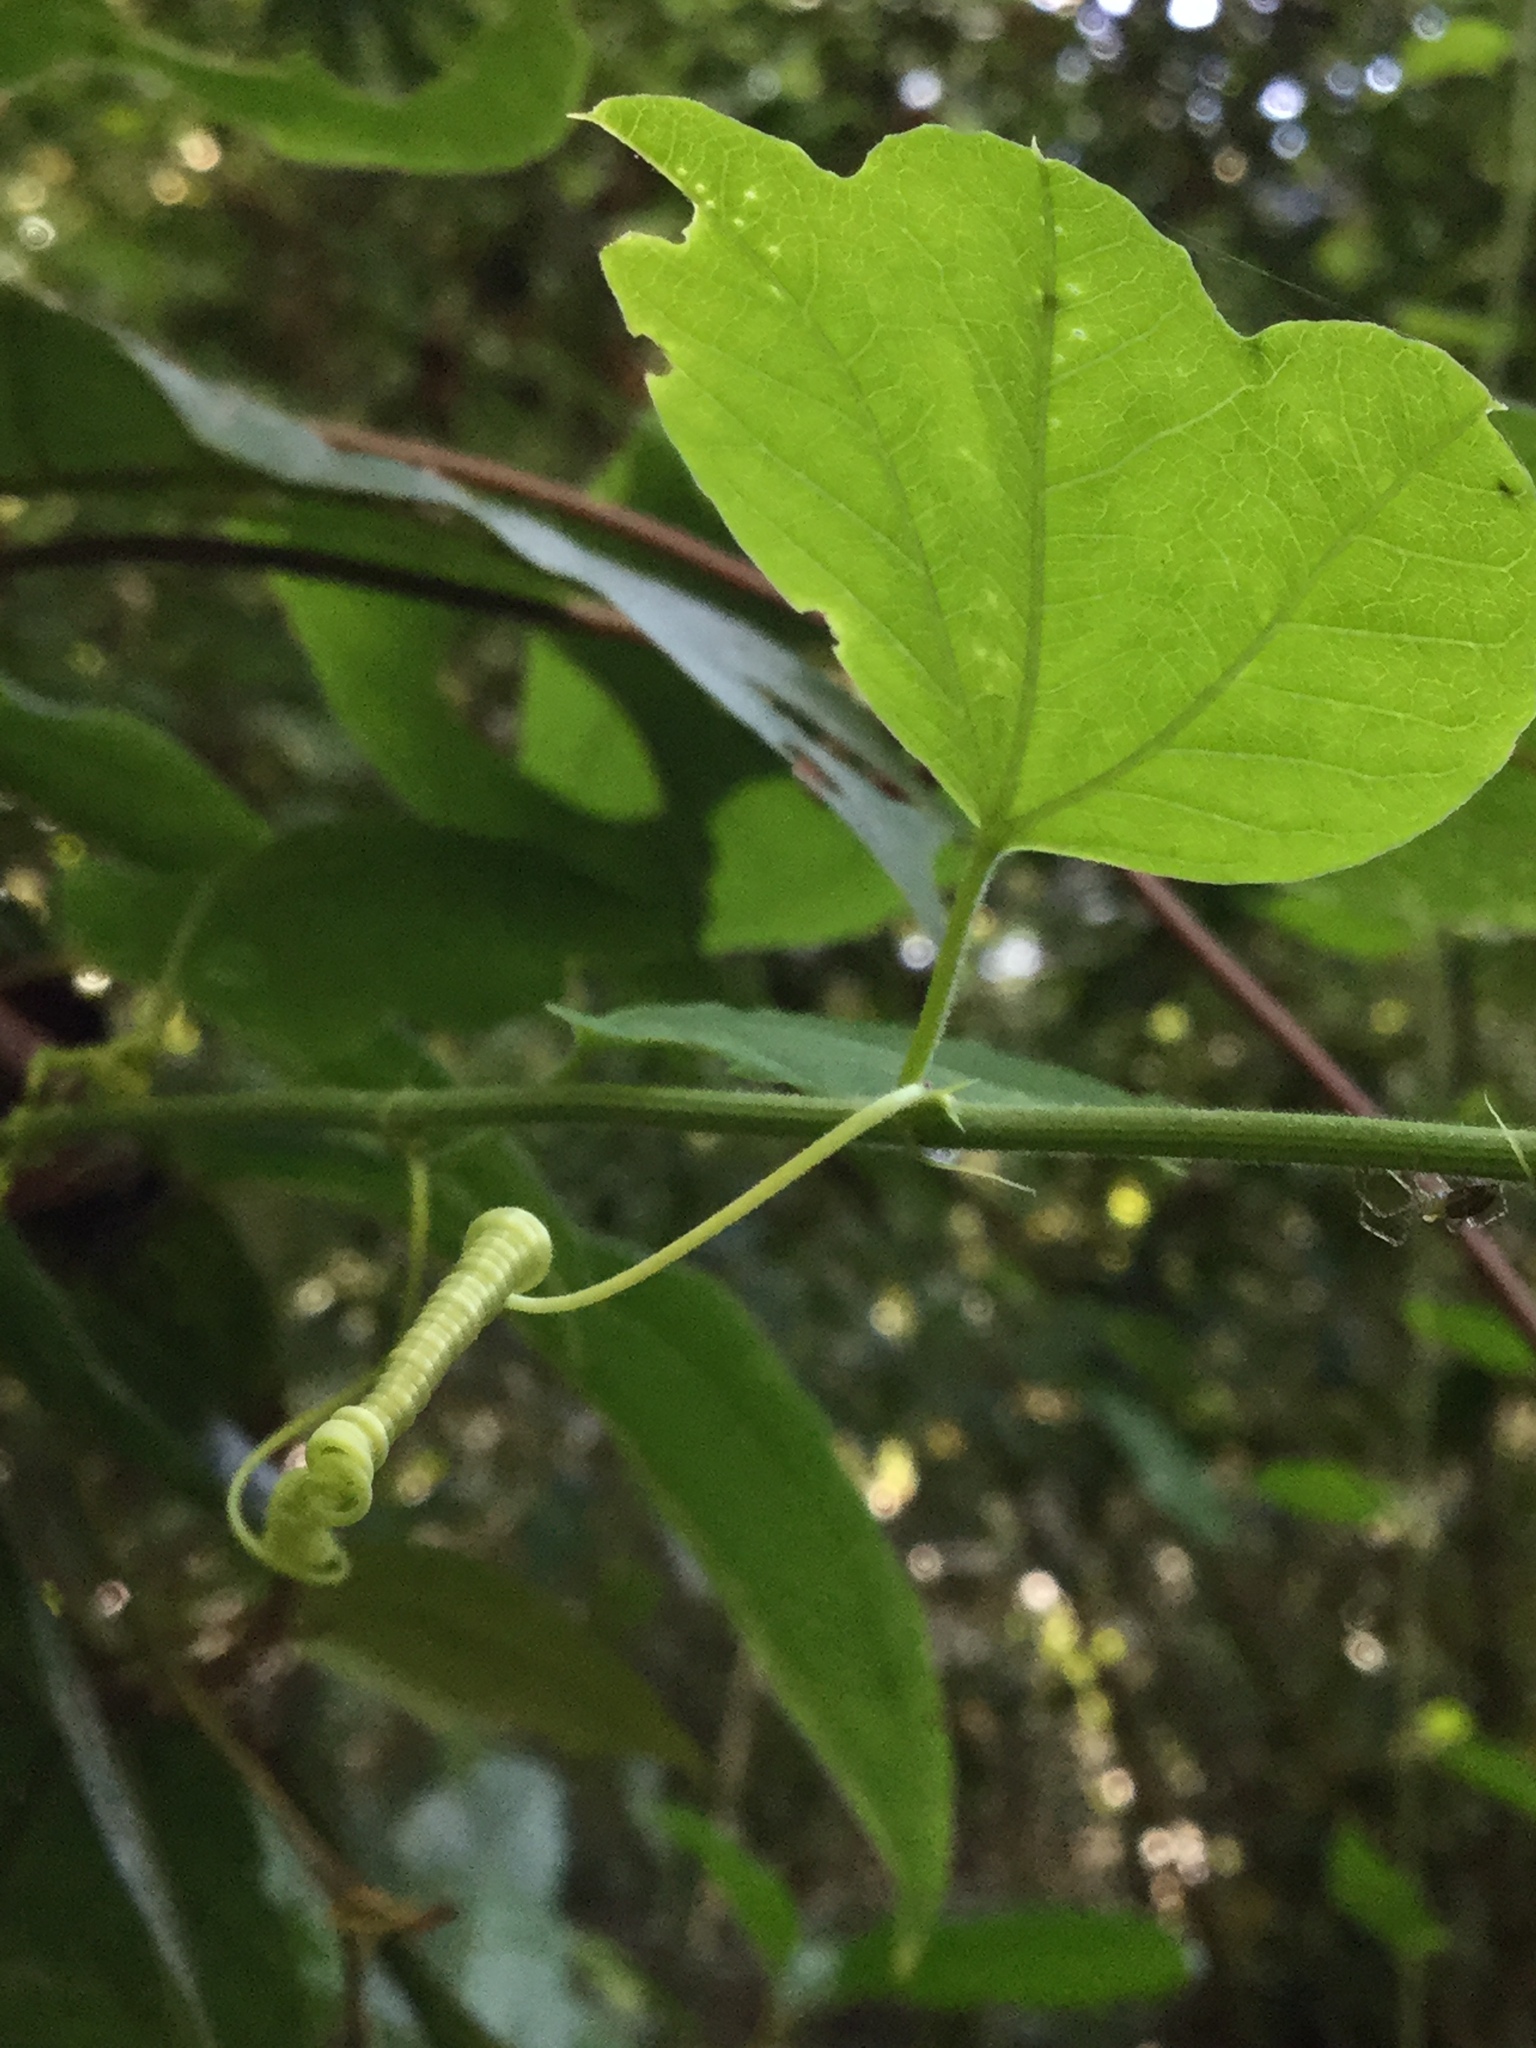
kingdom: Plantae
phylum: Tracheophyta
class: Magnoliopsida
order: Malpighiales
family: Passifloraceae
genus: Passiflora
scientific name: Passiflora pavonis
